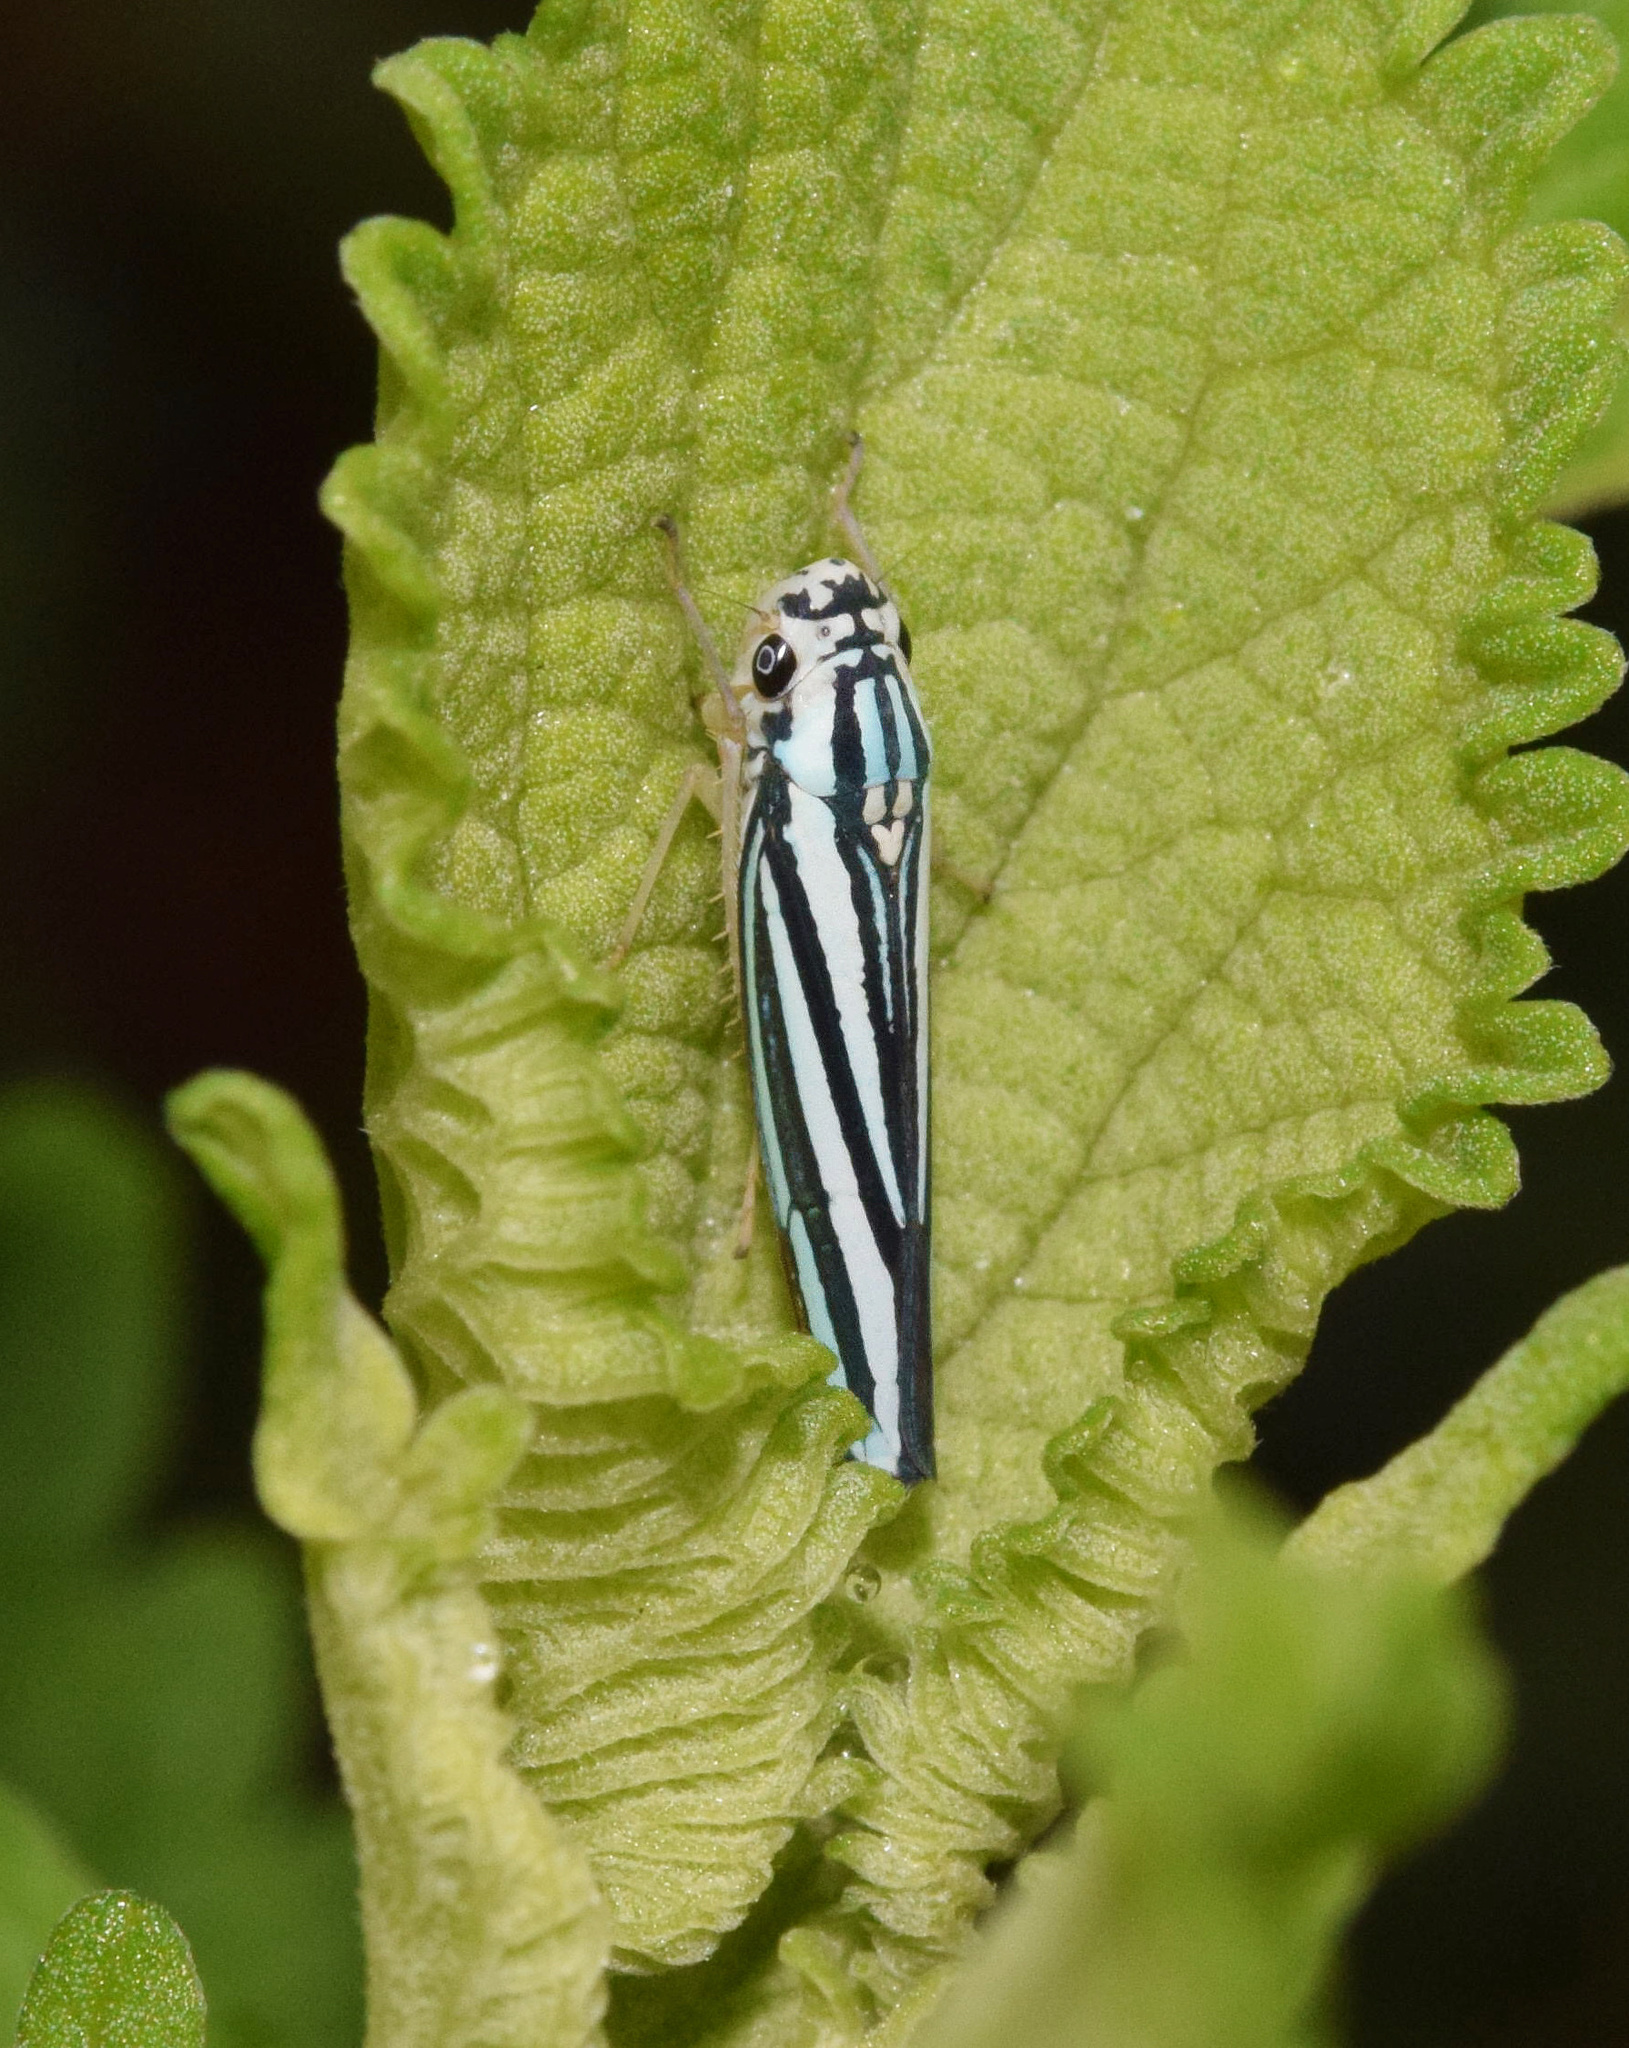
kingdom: Animalia
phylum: Arthropoda
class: Insecta
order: Hemiptera
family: Cicadellidae
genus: Tettigoniella
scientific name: Tettigoniella cosmopolita
